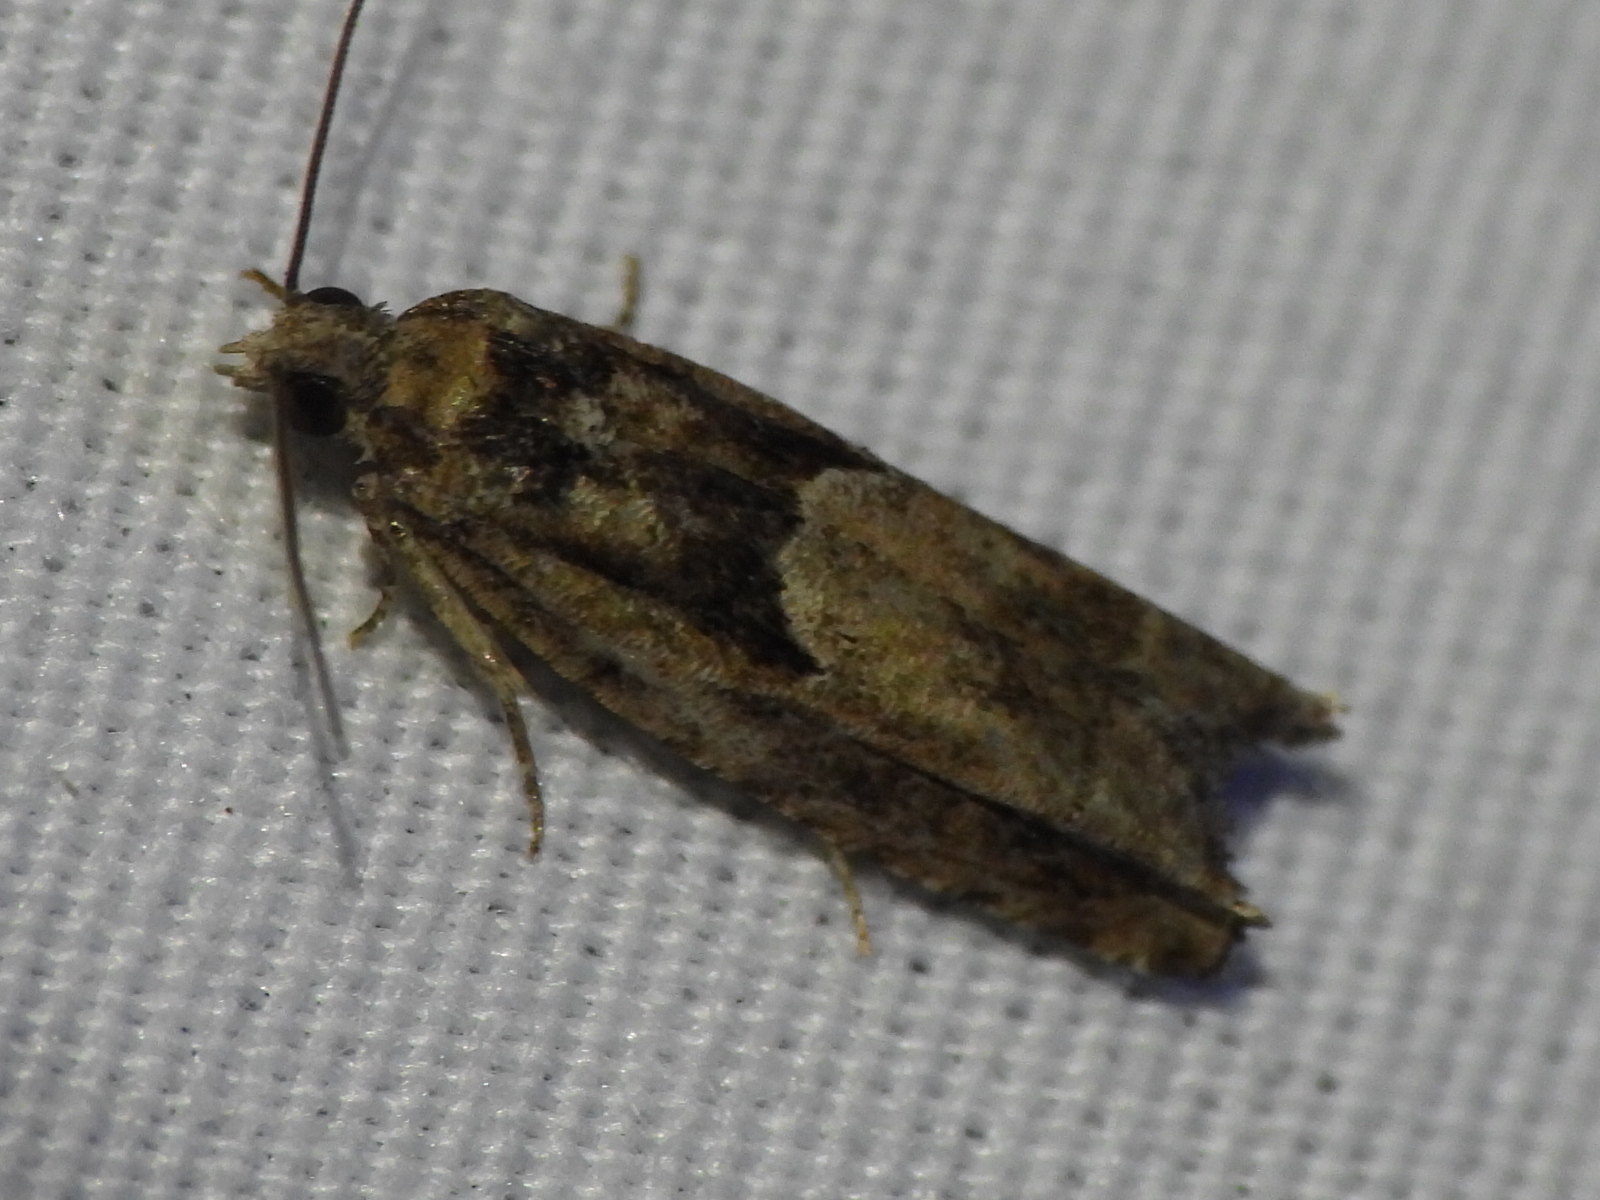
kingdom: Animalia
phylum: Arthropoda
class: Insecta
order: Lepidoptera
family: Tortricidae
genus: Pseudexentera
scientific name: Pseudexentera hodsoni
